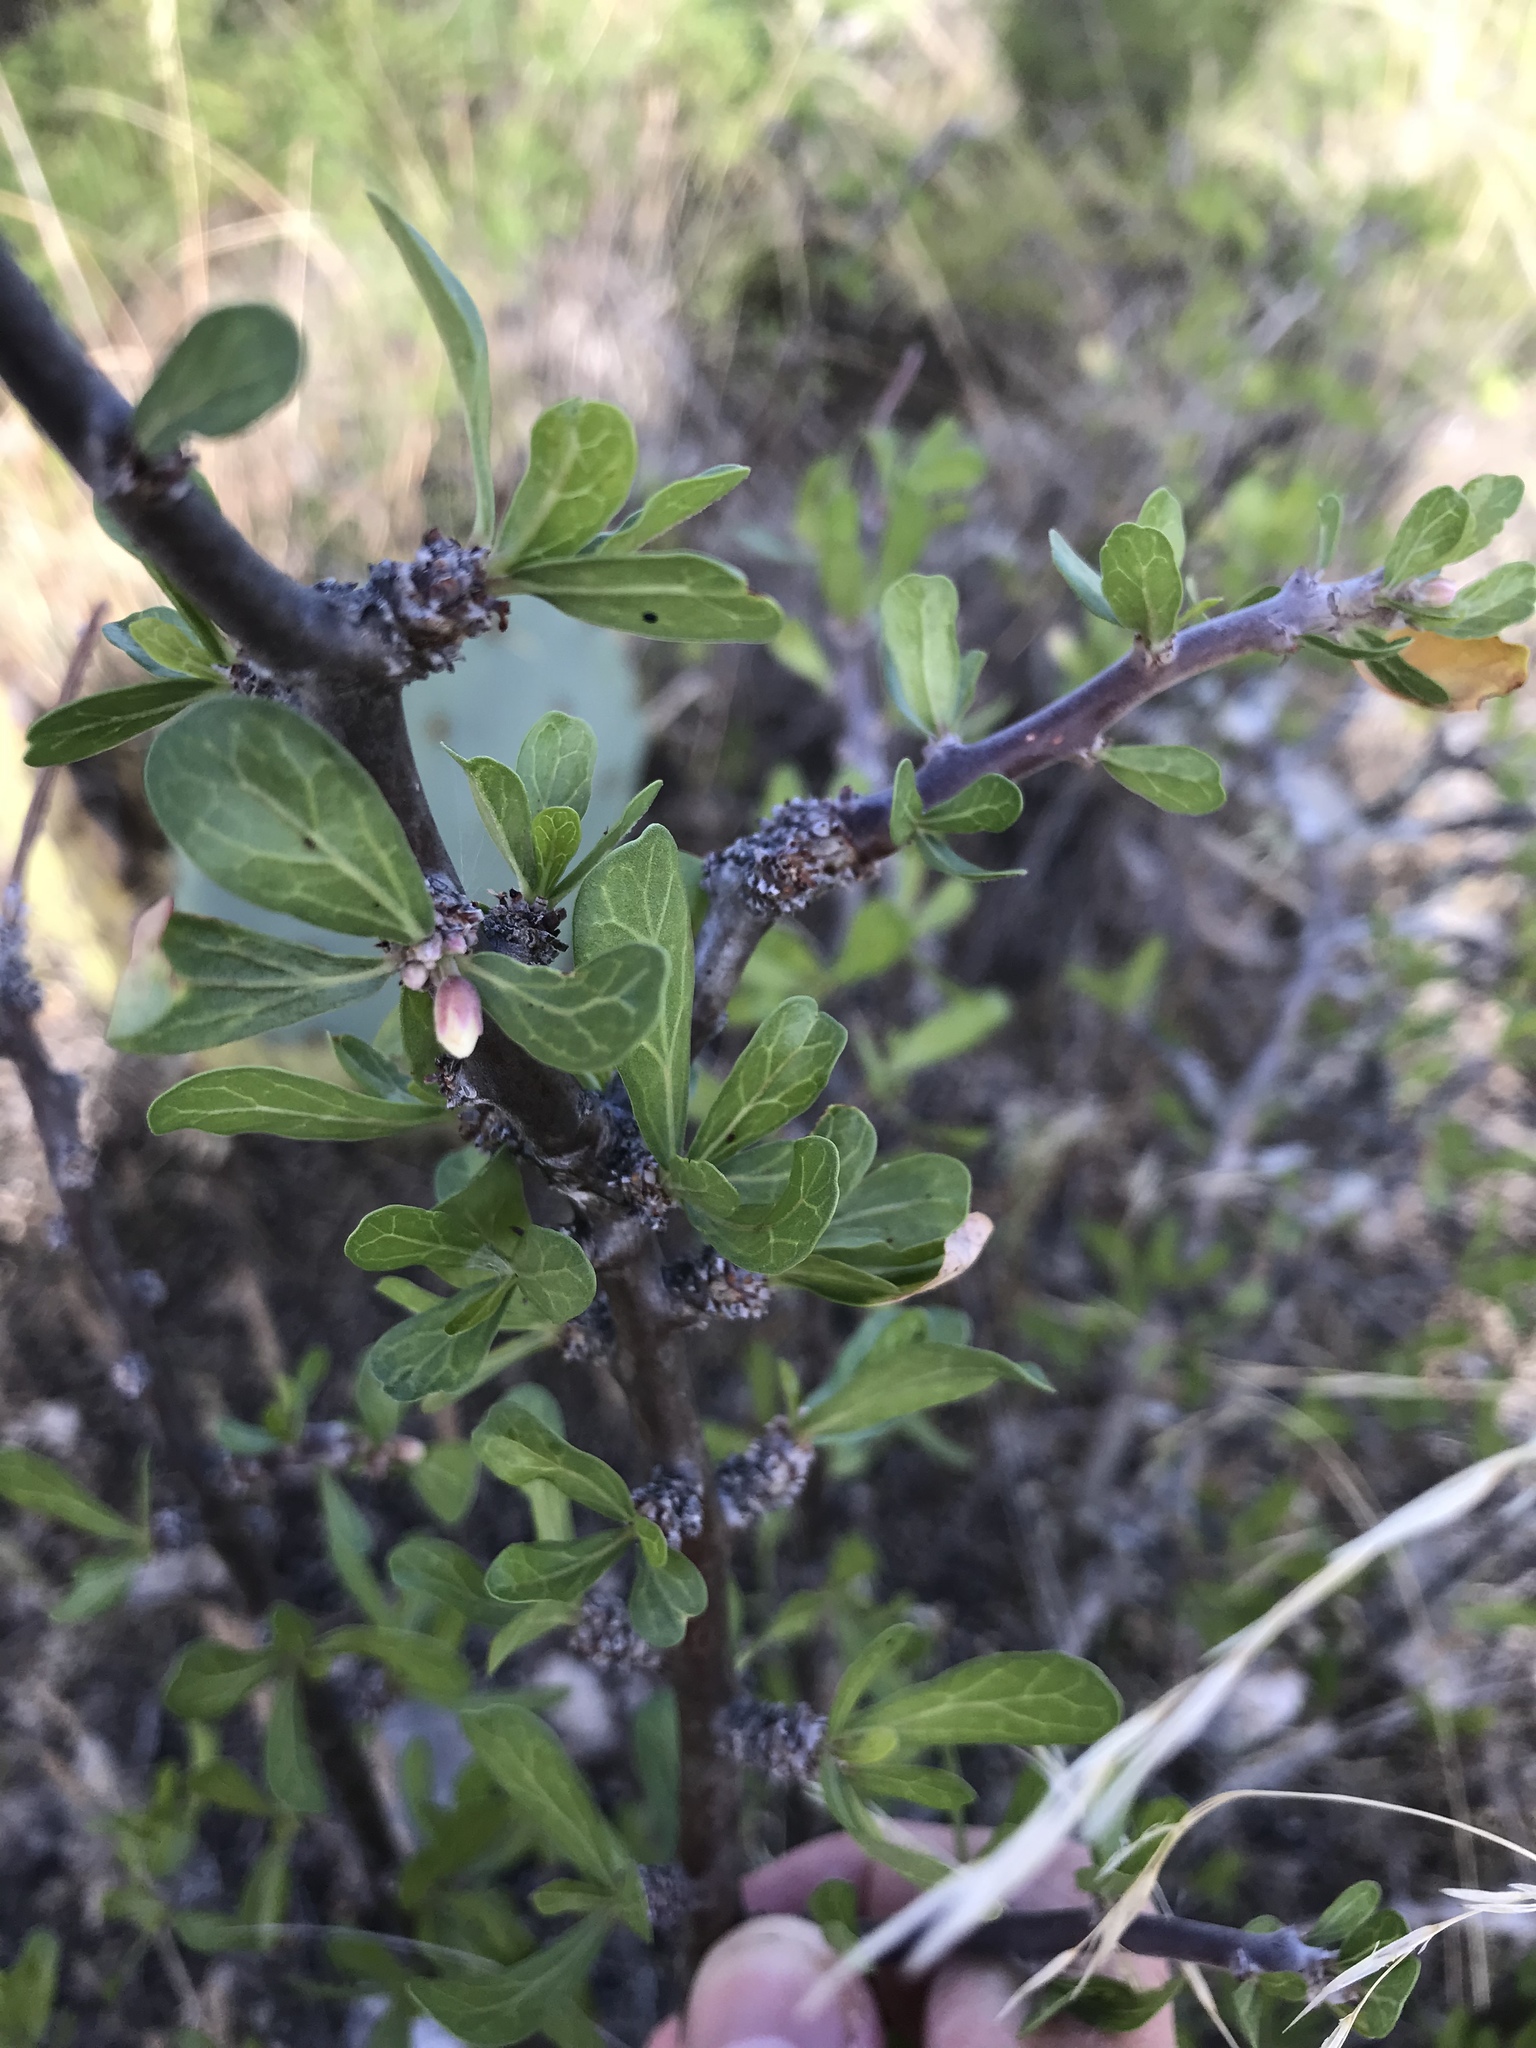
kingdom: Plantae
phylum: Tracheophyta
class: Magnoliopsida
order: Malpighiales
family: Euphorbiaceae
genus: Jatropha
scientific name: Jatropha dioica
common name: Leatherstem
